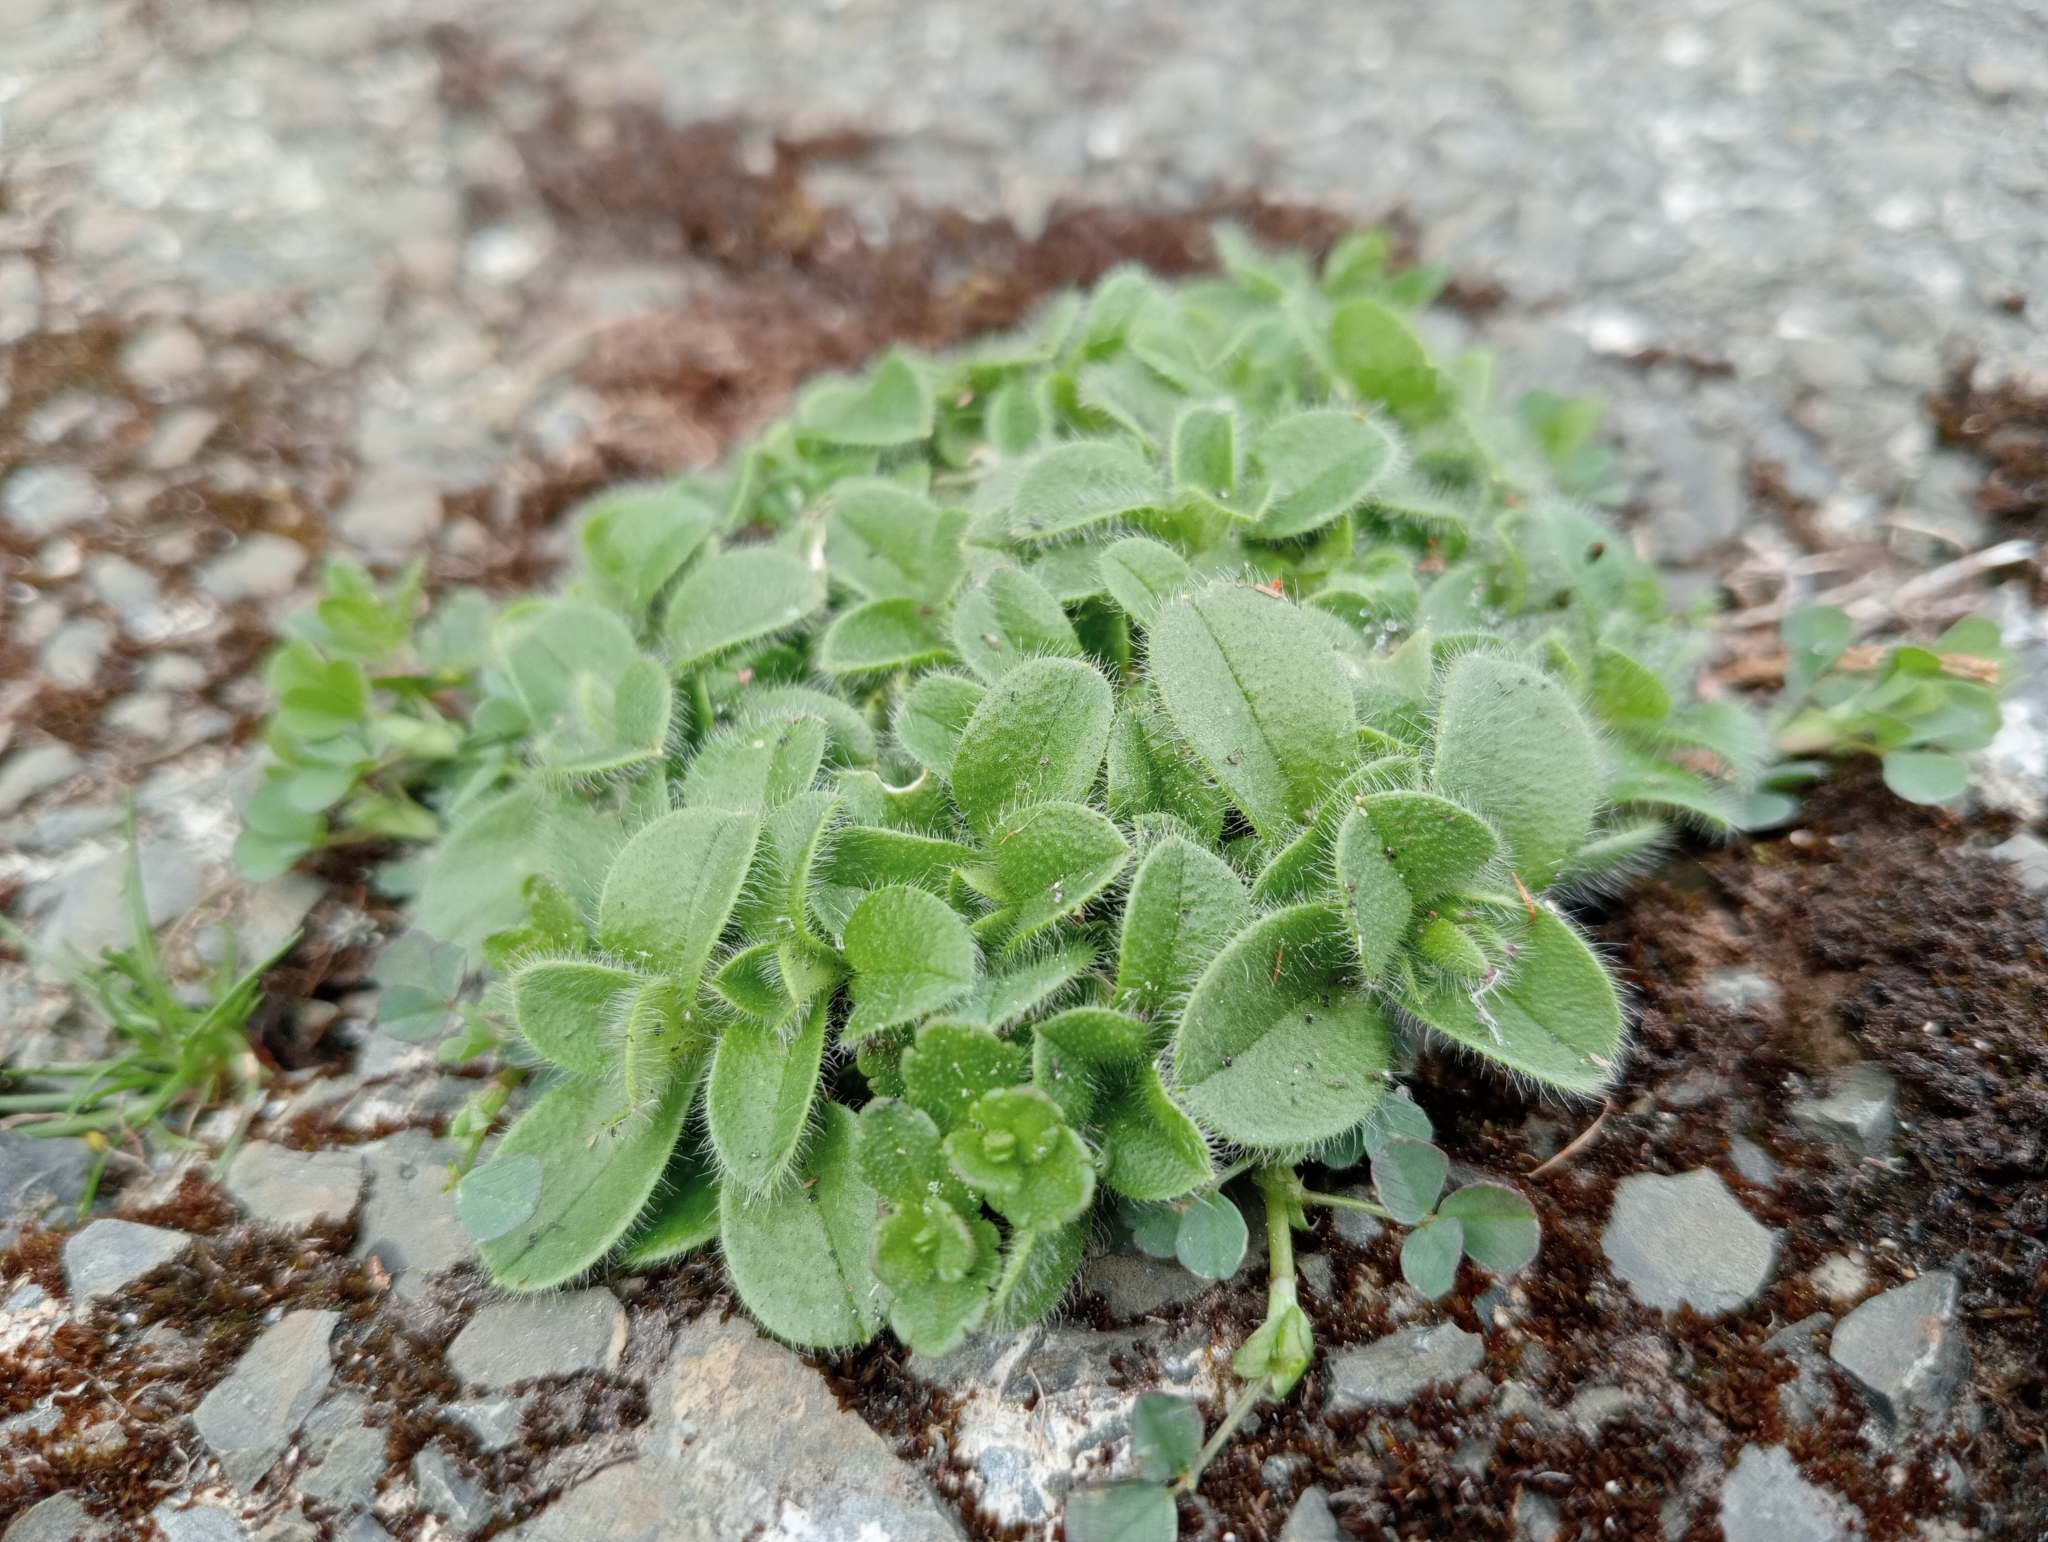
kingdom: Plantae
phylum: Tracheophyta
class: Magnoliopsida
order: Caryophyllales
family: Caryophyllaceae
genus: Cerastium
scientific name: Cerastium glomeratum
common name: Sticky chickweed
